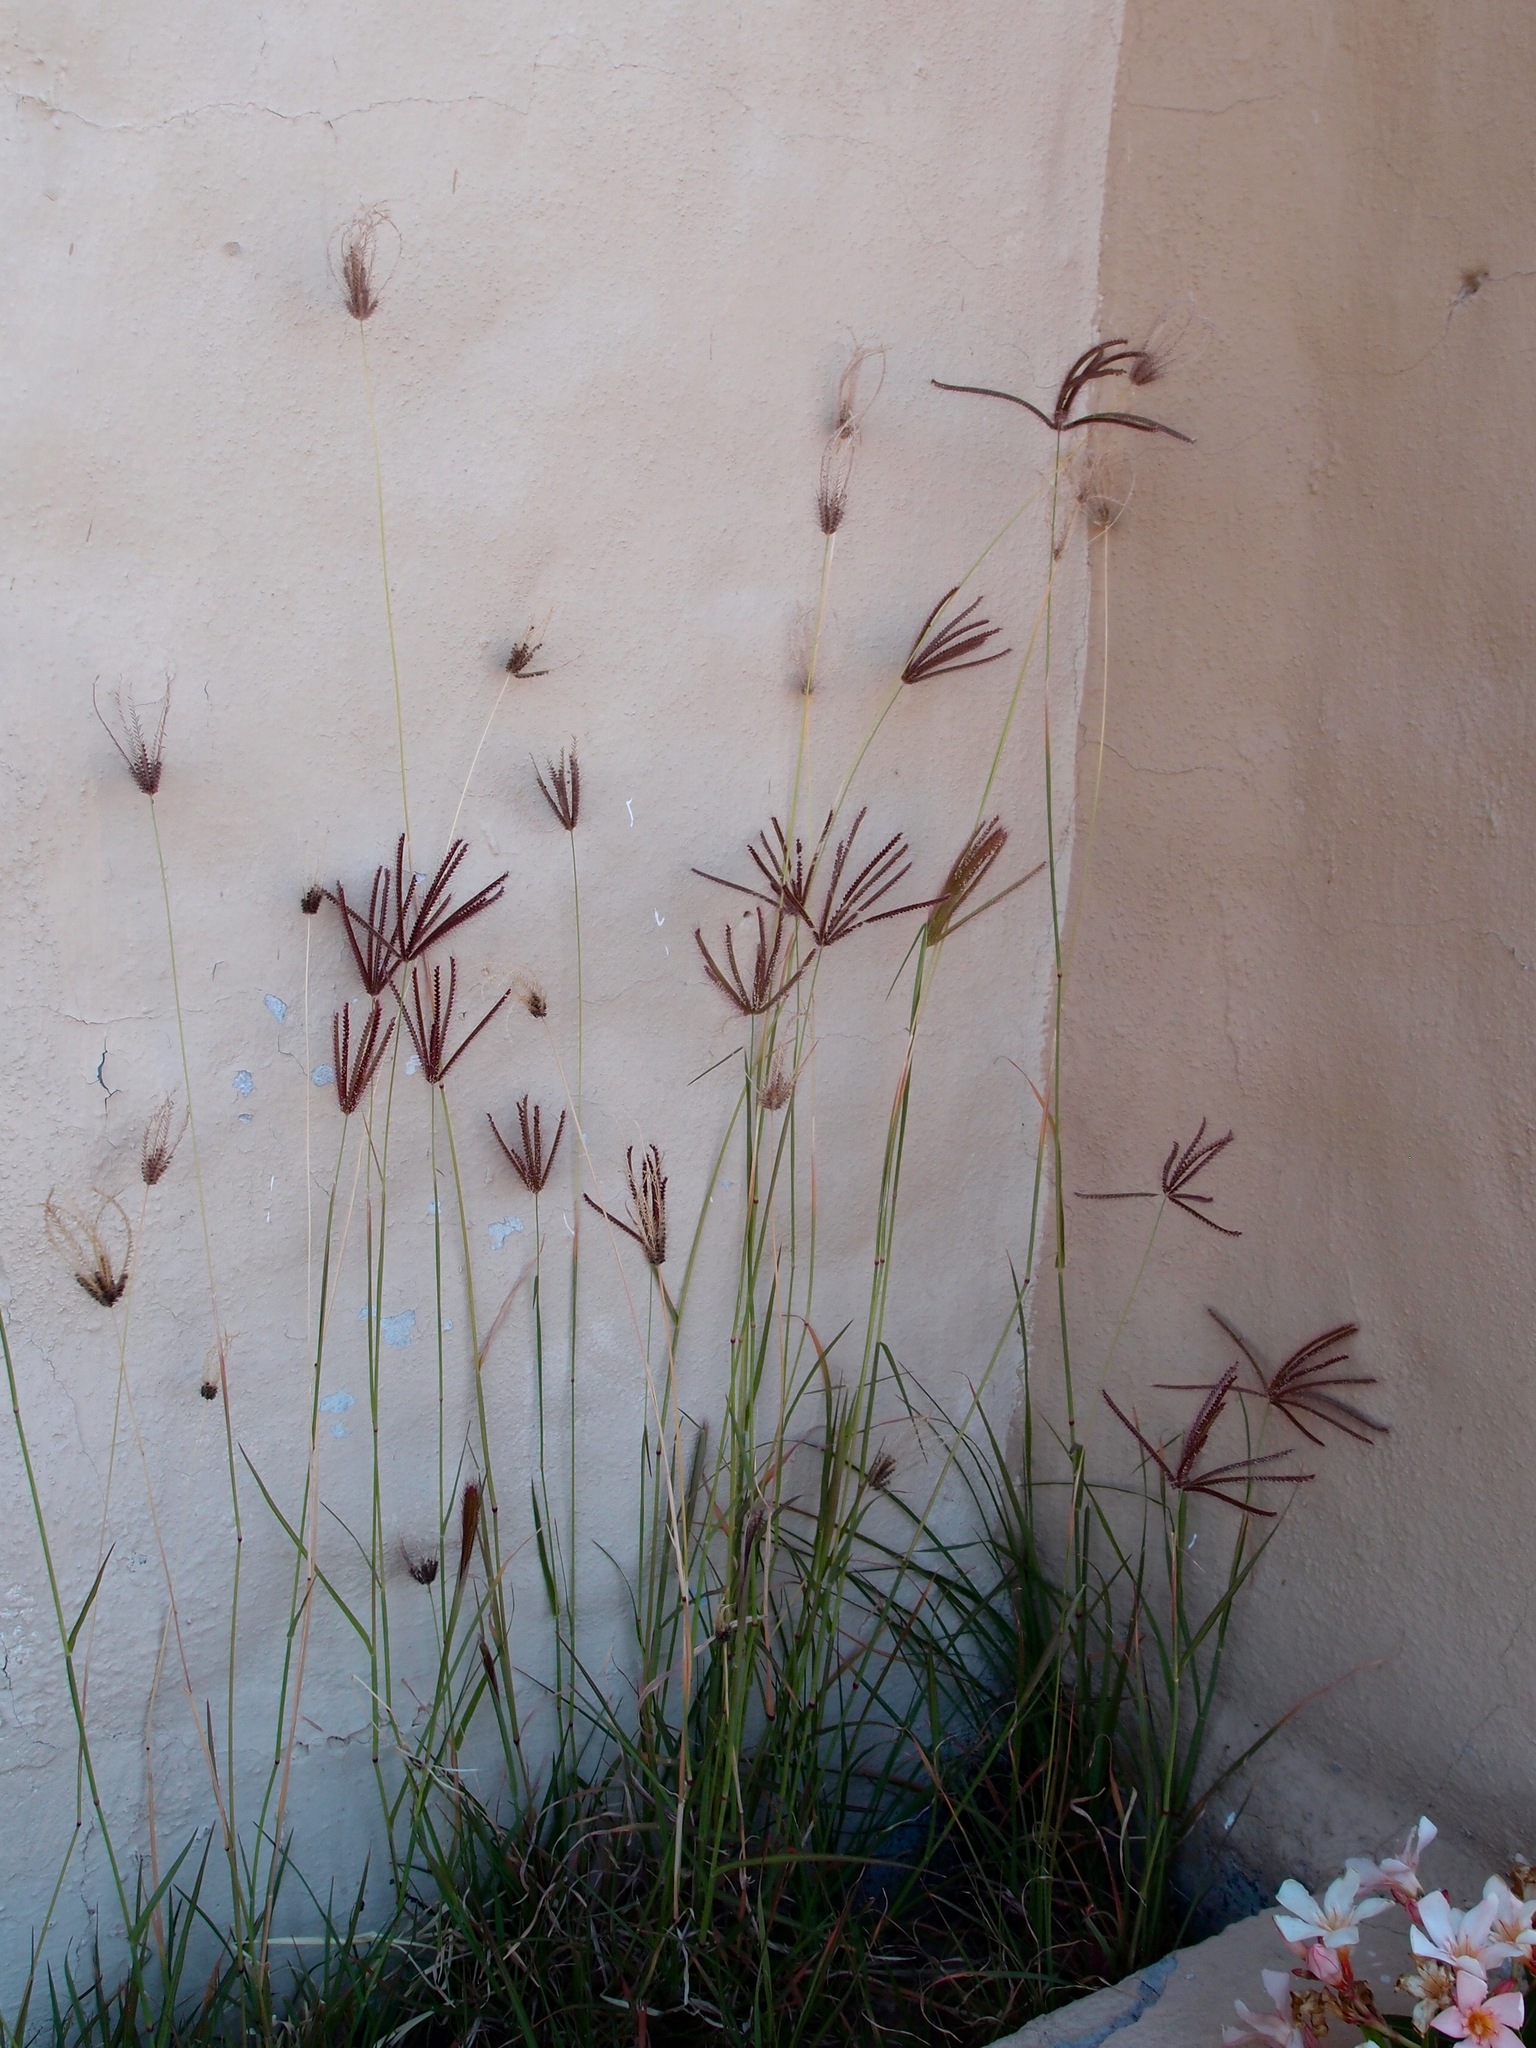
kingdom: Plantae
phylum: Tracheophyta
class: Liliopsida
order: Poales
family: Poaceae
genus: Chloris
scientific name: Chloris barbata
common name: Swollen fingergrass
